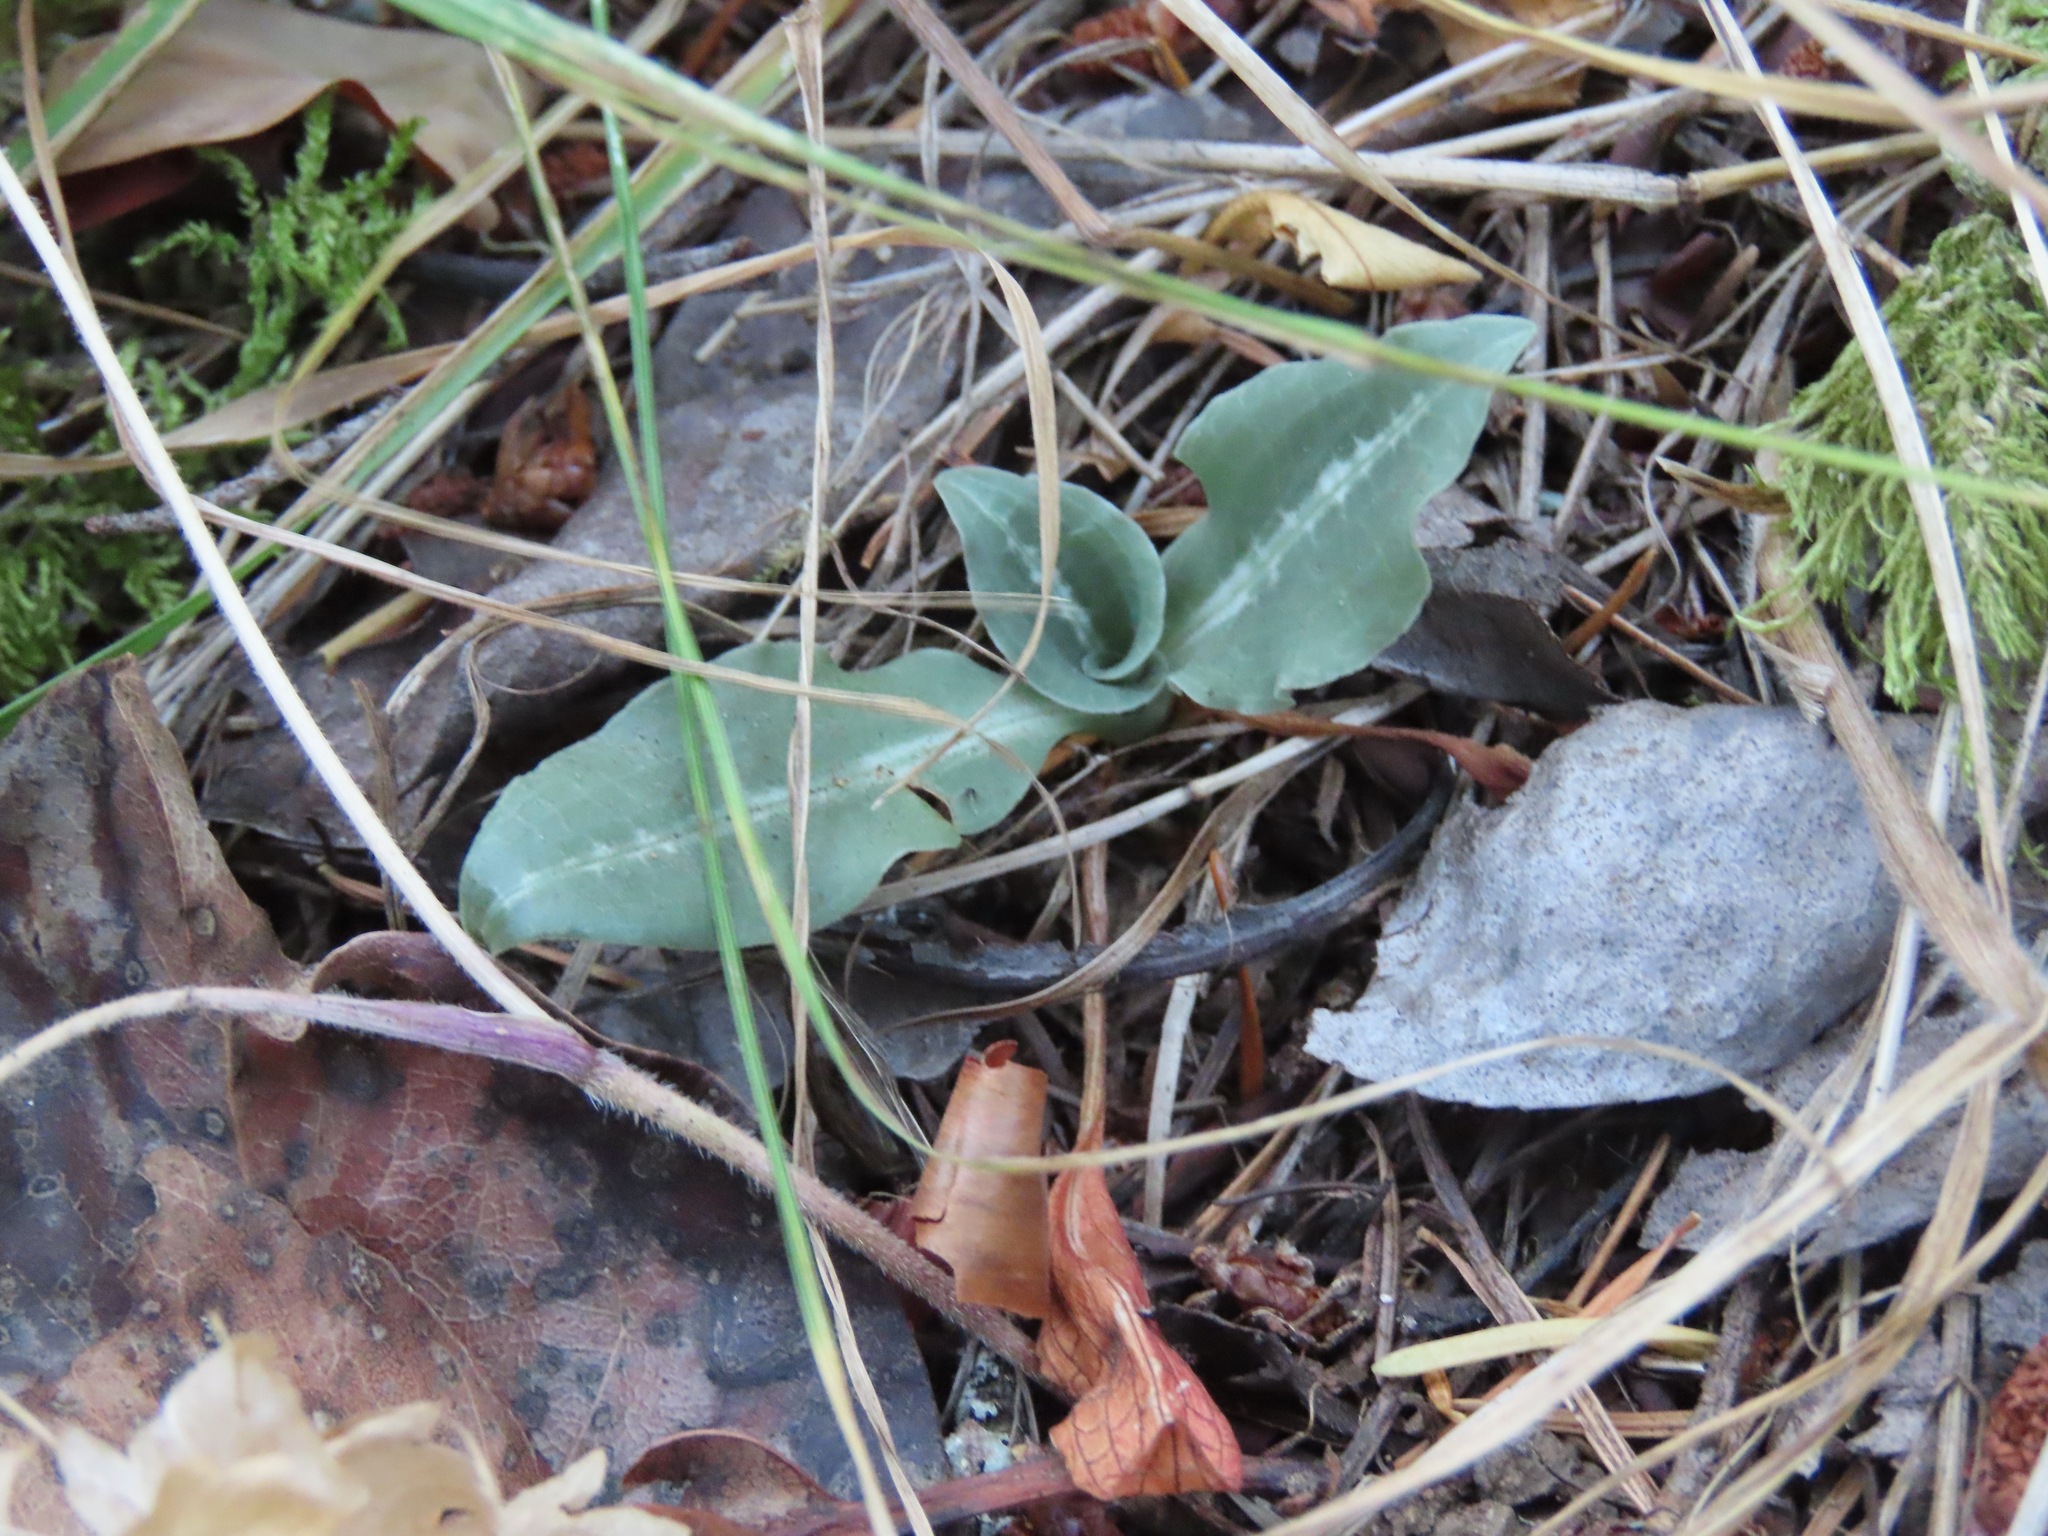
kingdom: Plantae
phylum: Tracheophyta
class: Liliopsida
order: Asparagales
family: Orchidaceae
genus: Goodyera
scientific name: Goodyera oblongifolia
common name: Giant rattlesnake-plantain
